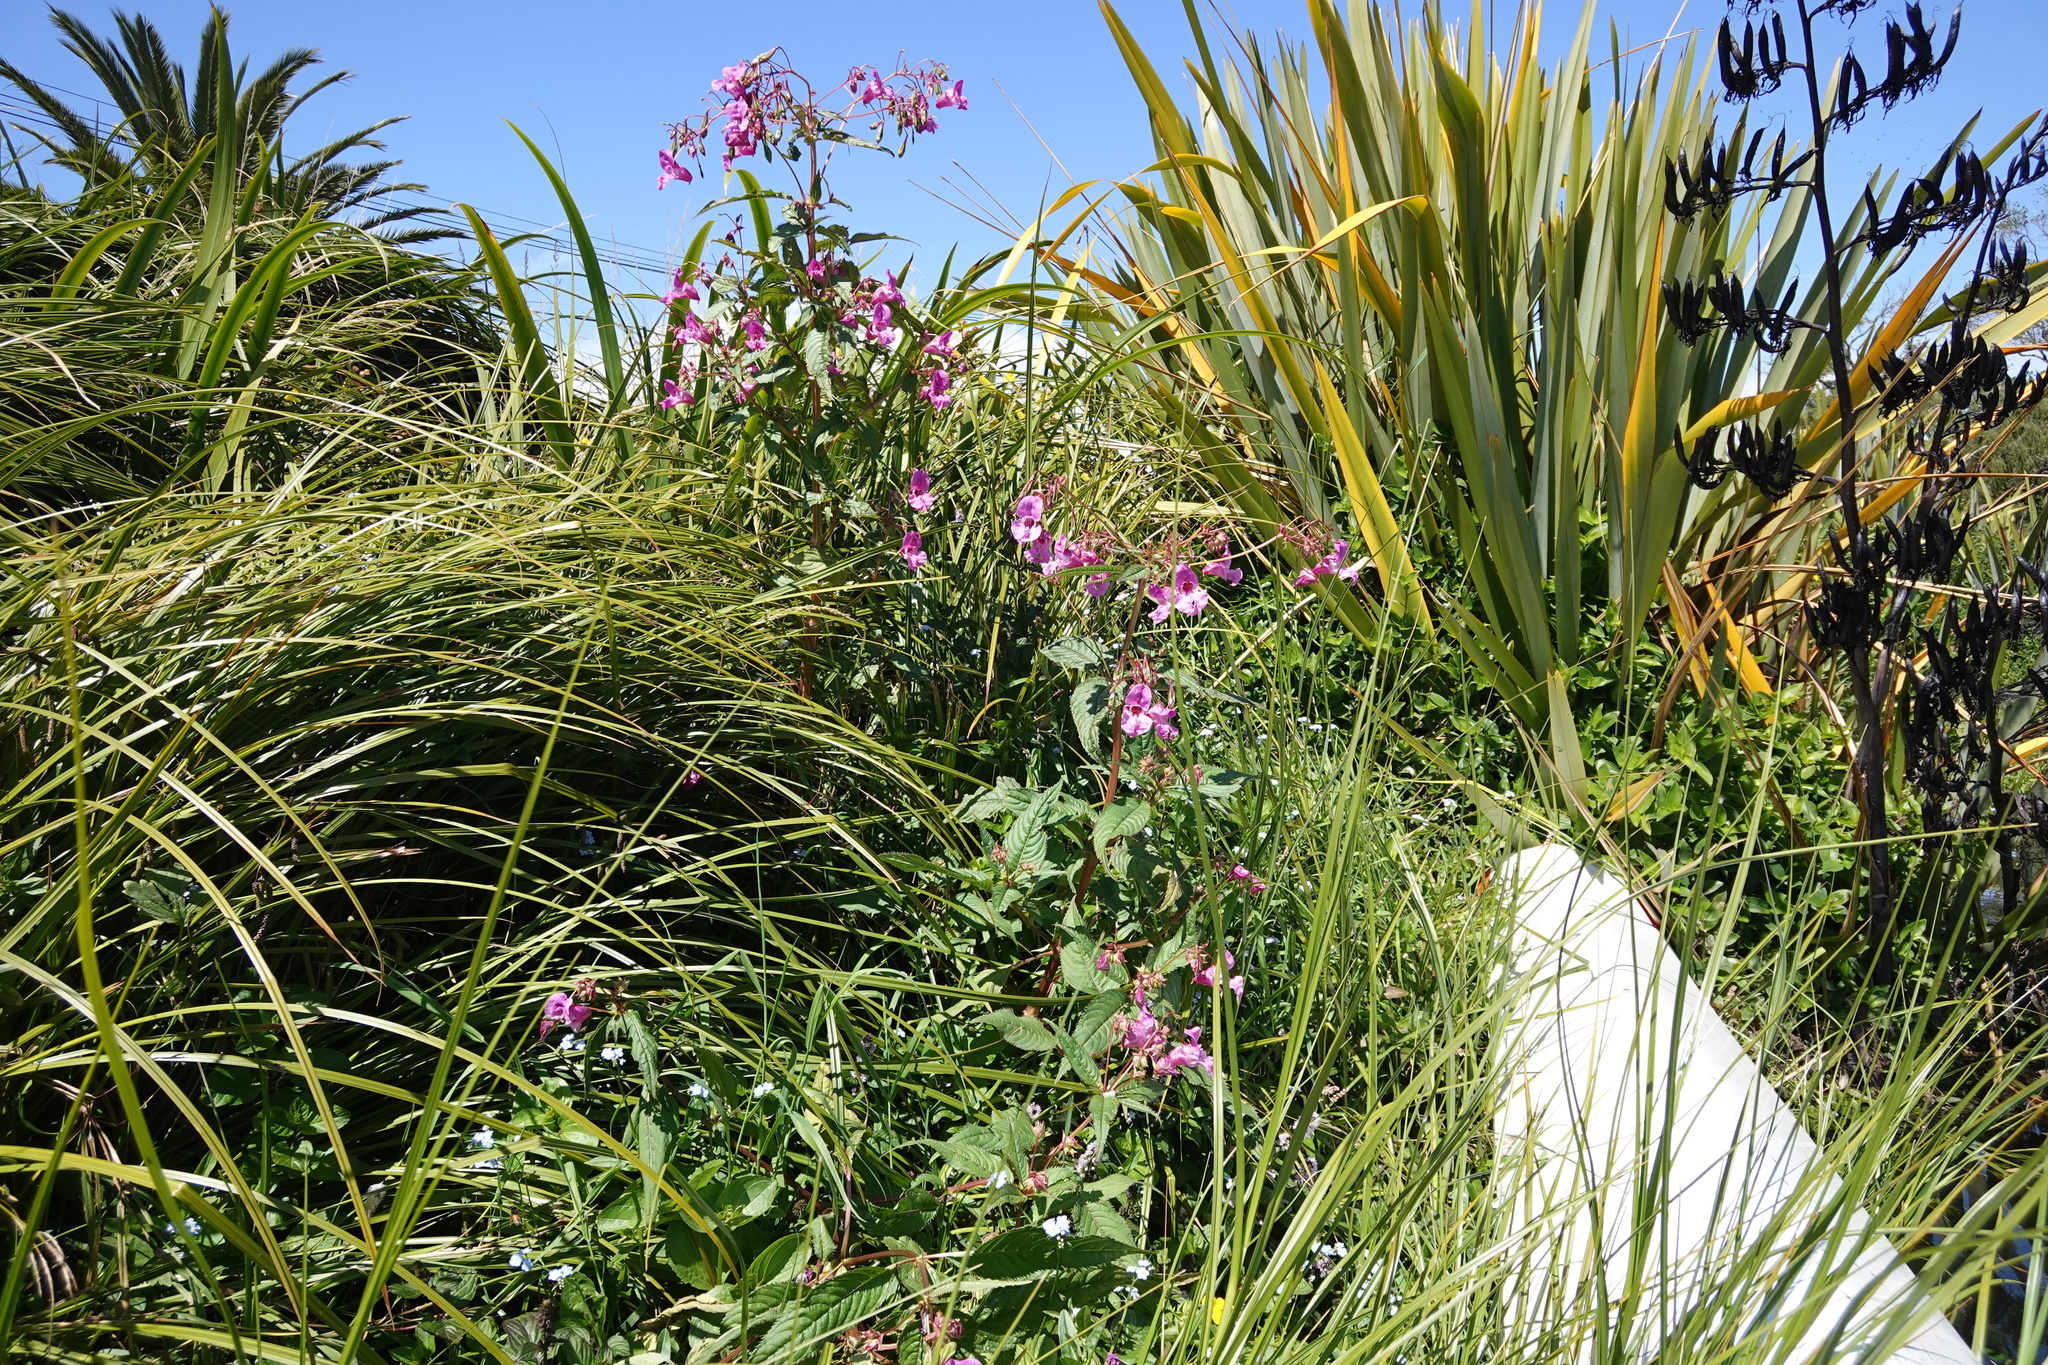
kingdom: Plantae
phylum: Tracheophyta
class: Magnoliopsida
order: Ericales
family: Balsaminaceae
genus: Impatiens
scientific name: Impatiens glandulifera
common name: Himalayan balsam
